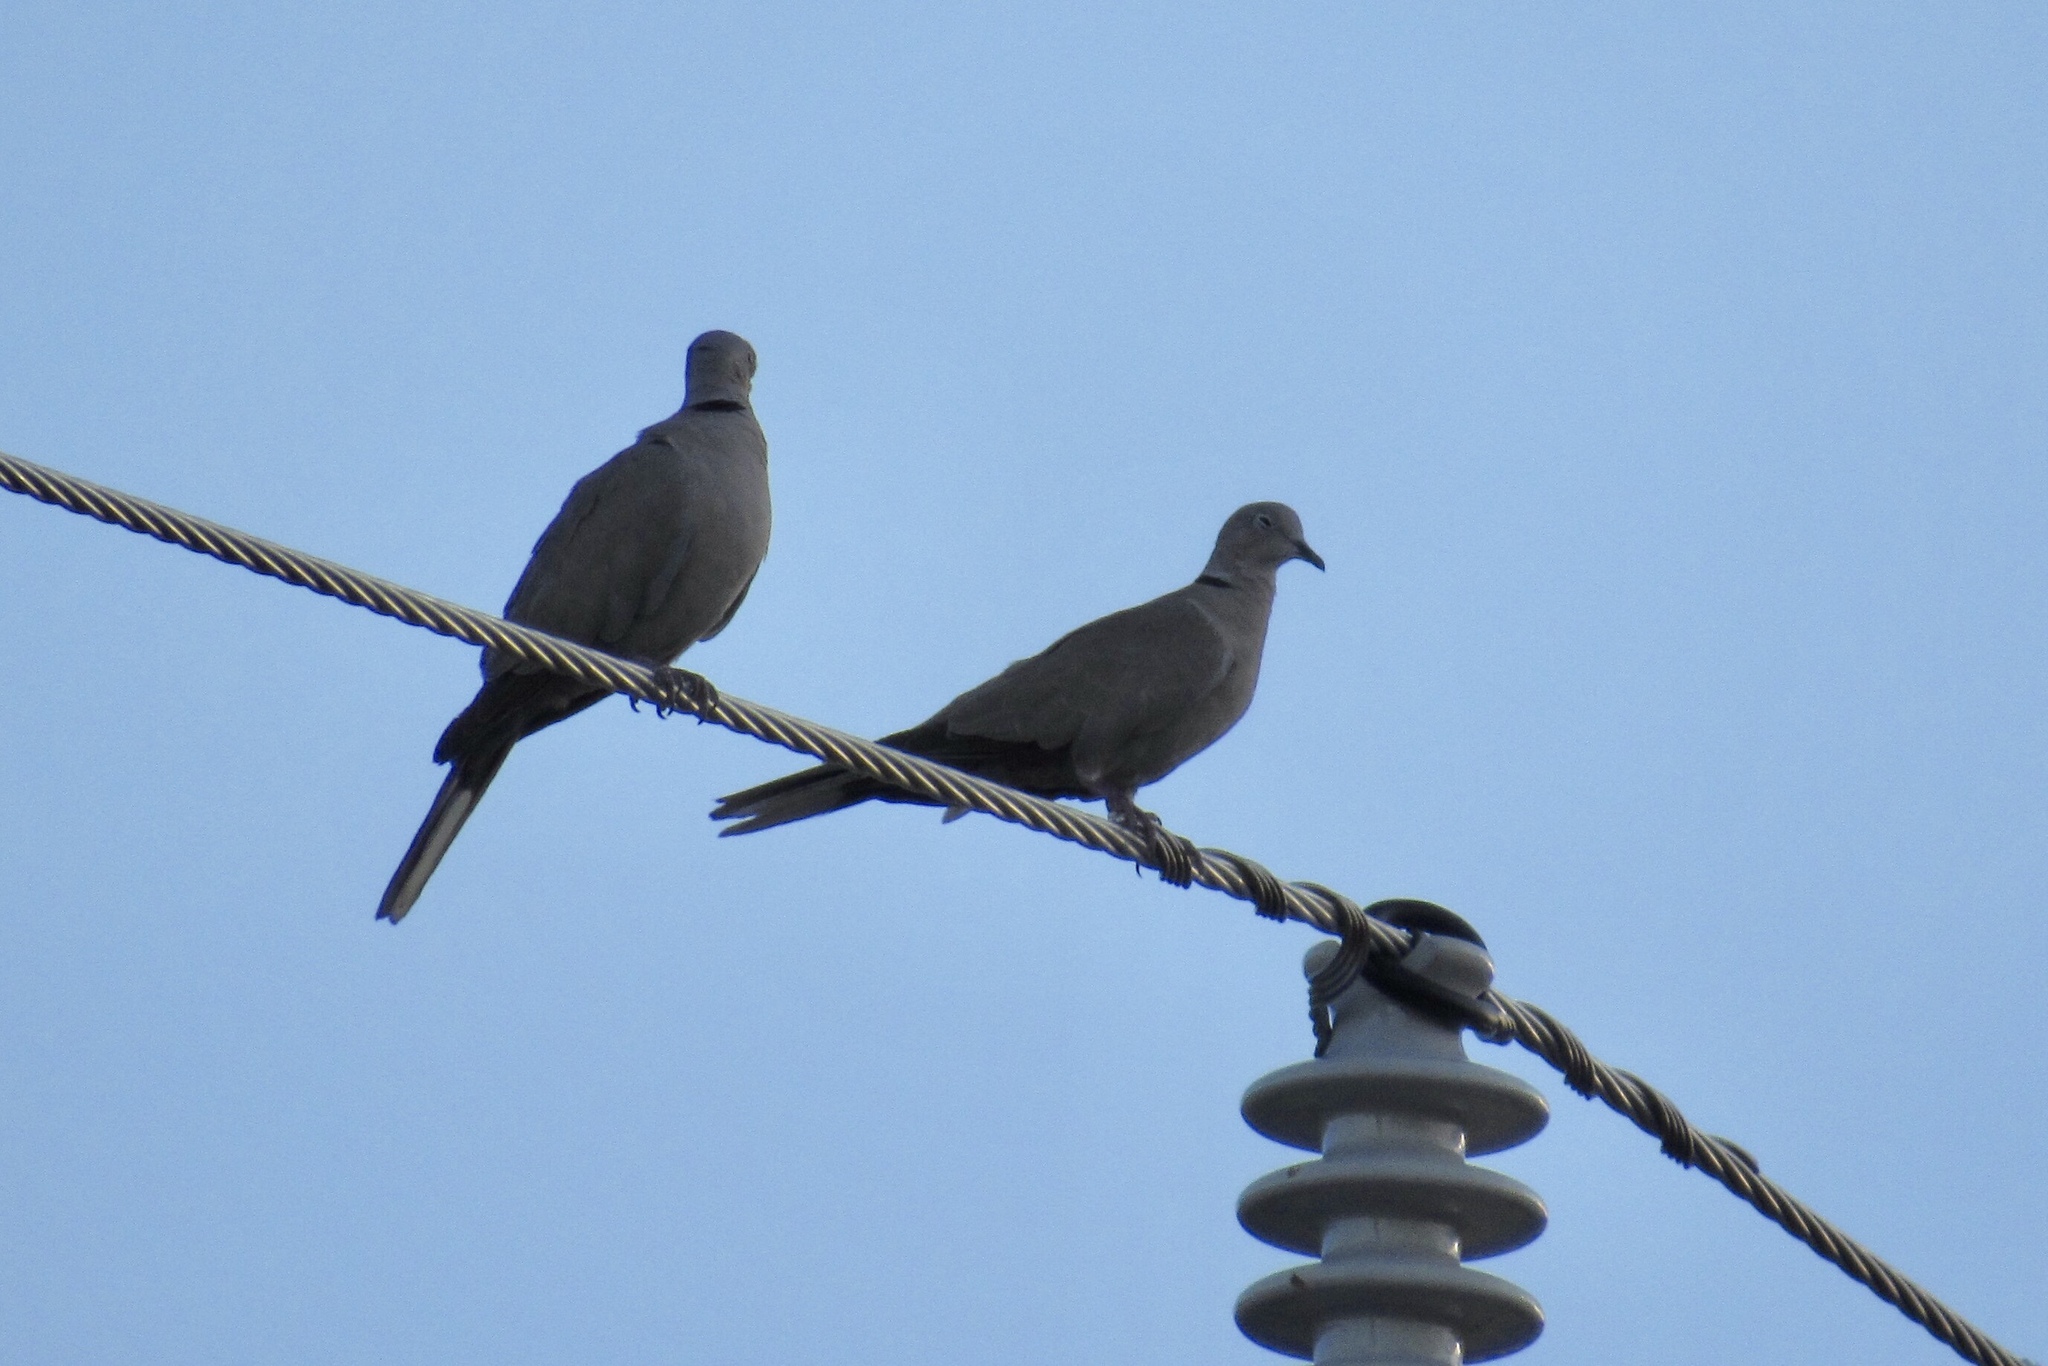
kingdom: Animalia
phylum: Chordata
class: Aves
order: Columbiformes
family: Columbidae
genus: Streptopelia
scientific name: Streptopelia decaocto
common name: Eurasian collared dove
